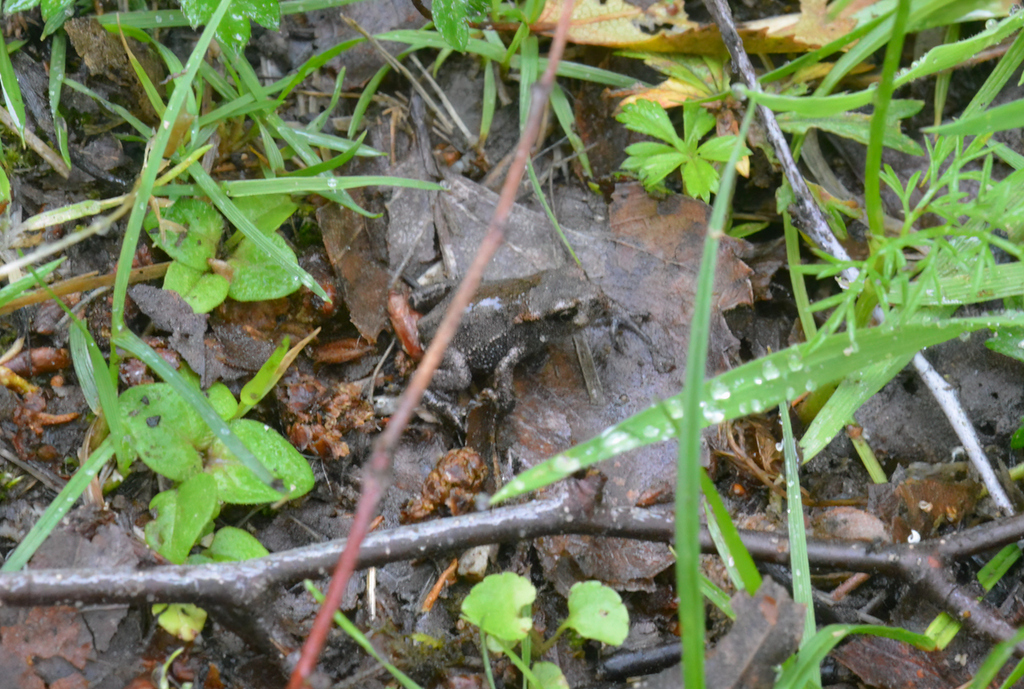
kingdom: Animalia
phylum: Chordata
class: Amphibia
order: Anura
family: Bufonidae
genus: Bufo
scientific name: Bufo bufo
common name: Common toad
